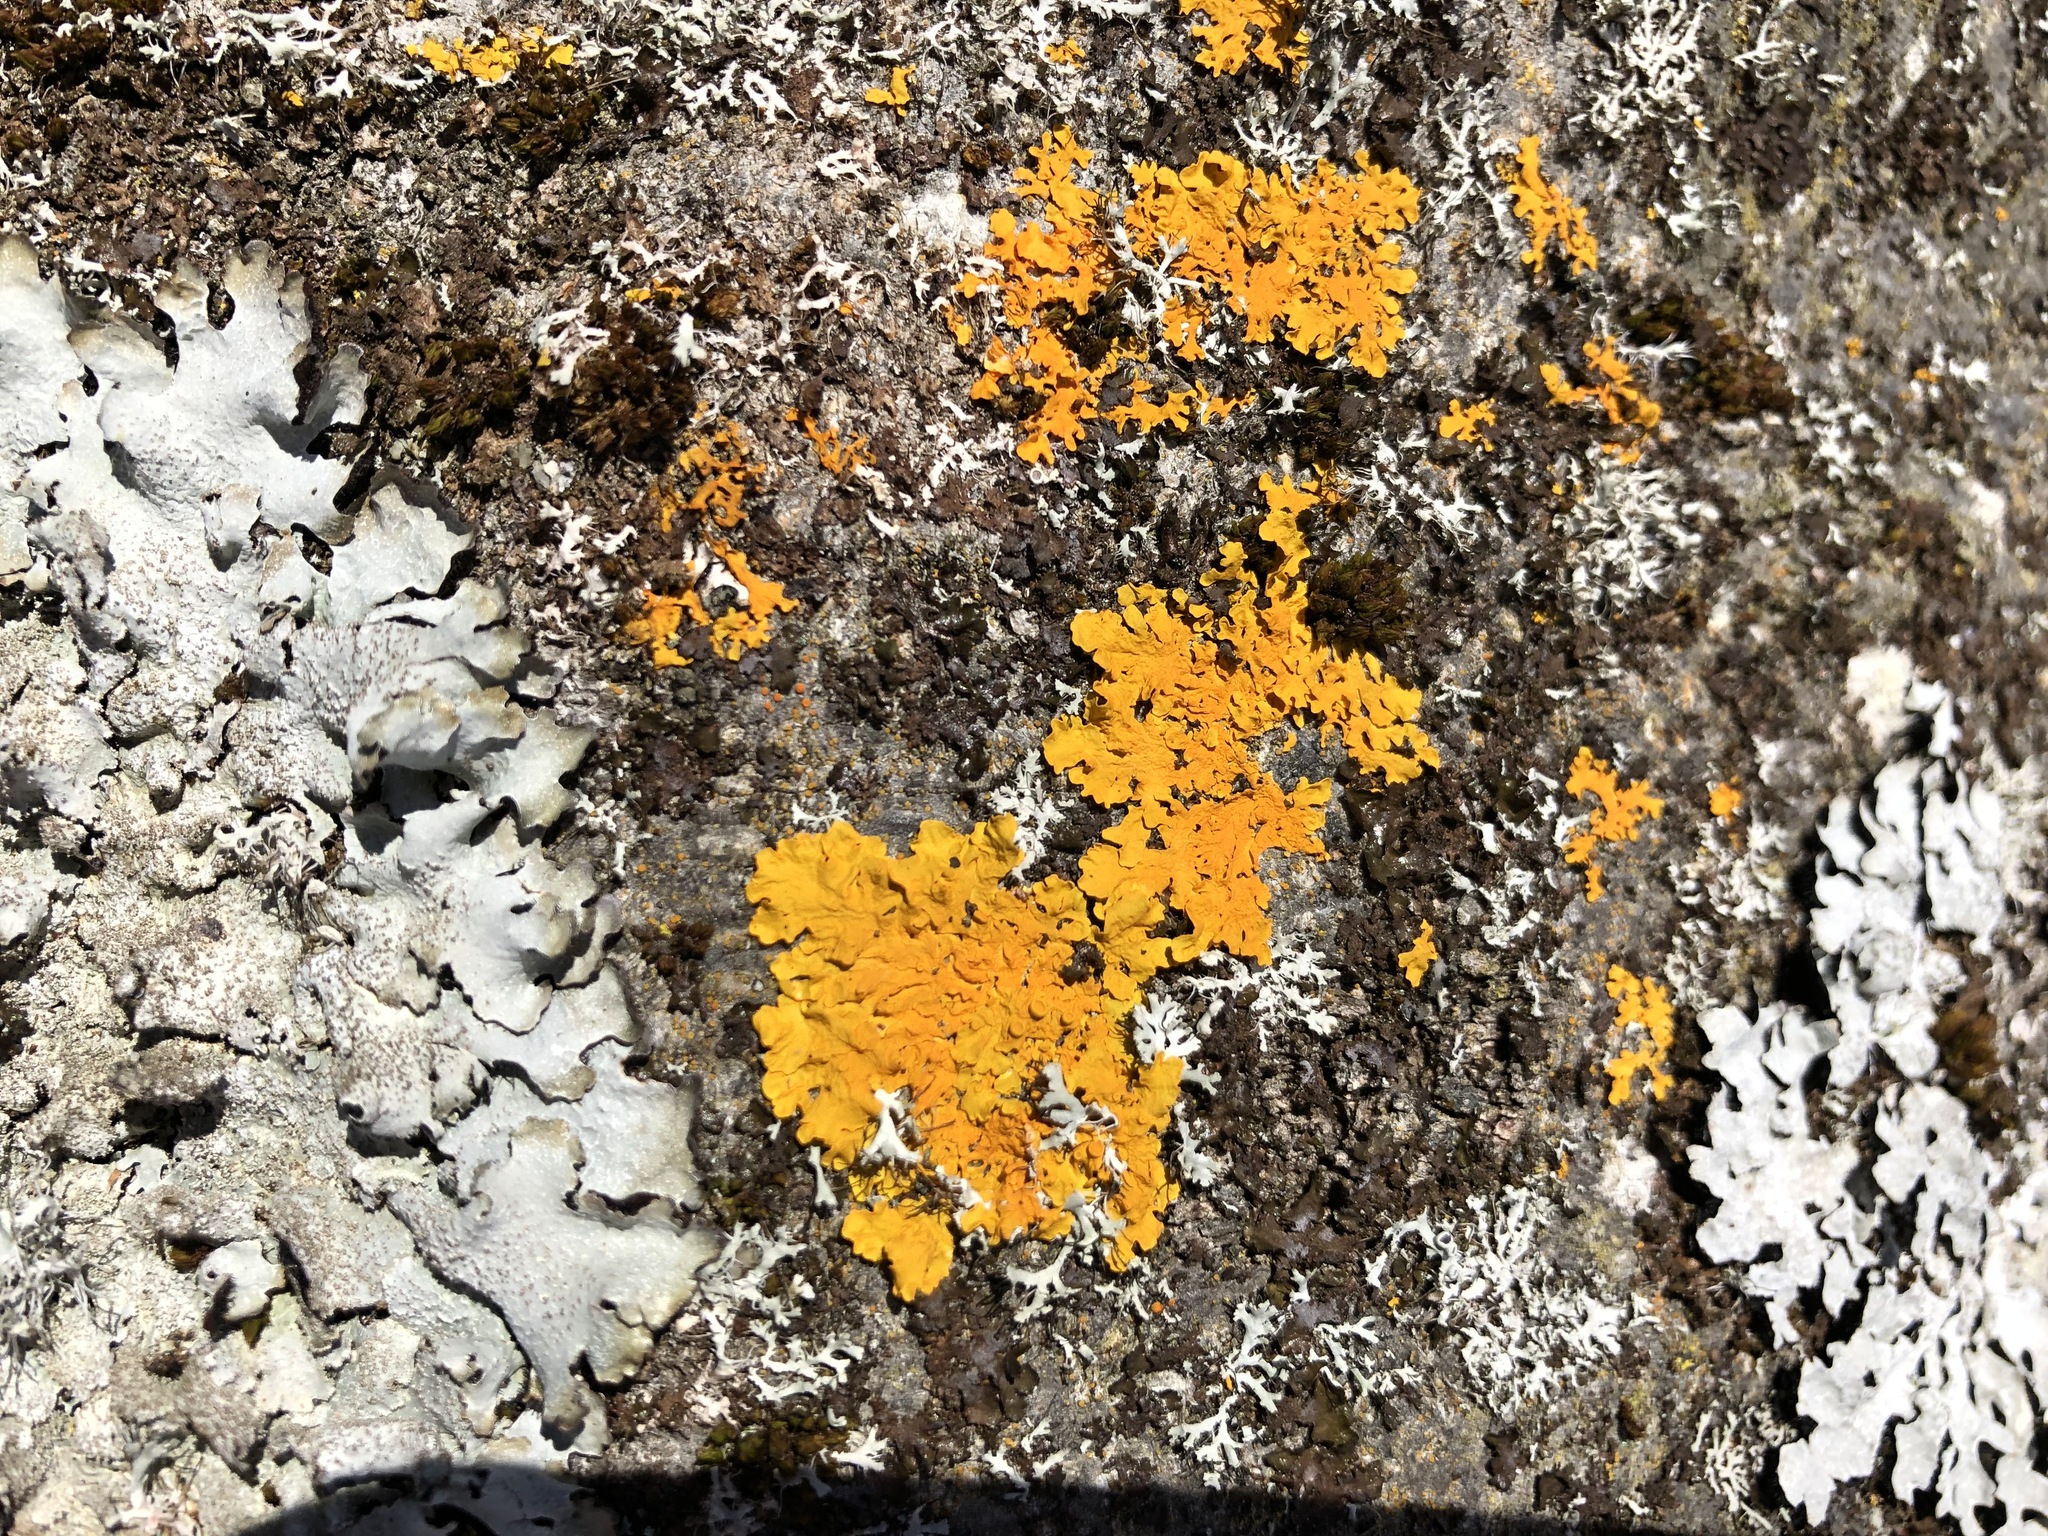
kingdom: Fungi
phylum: Ascomycota
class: Lecanoromycetes
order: Teloschistales
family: Teloschistaceae
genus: Xanthoria
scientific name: Xanthoria parietina
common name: Common orange lichen
